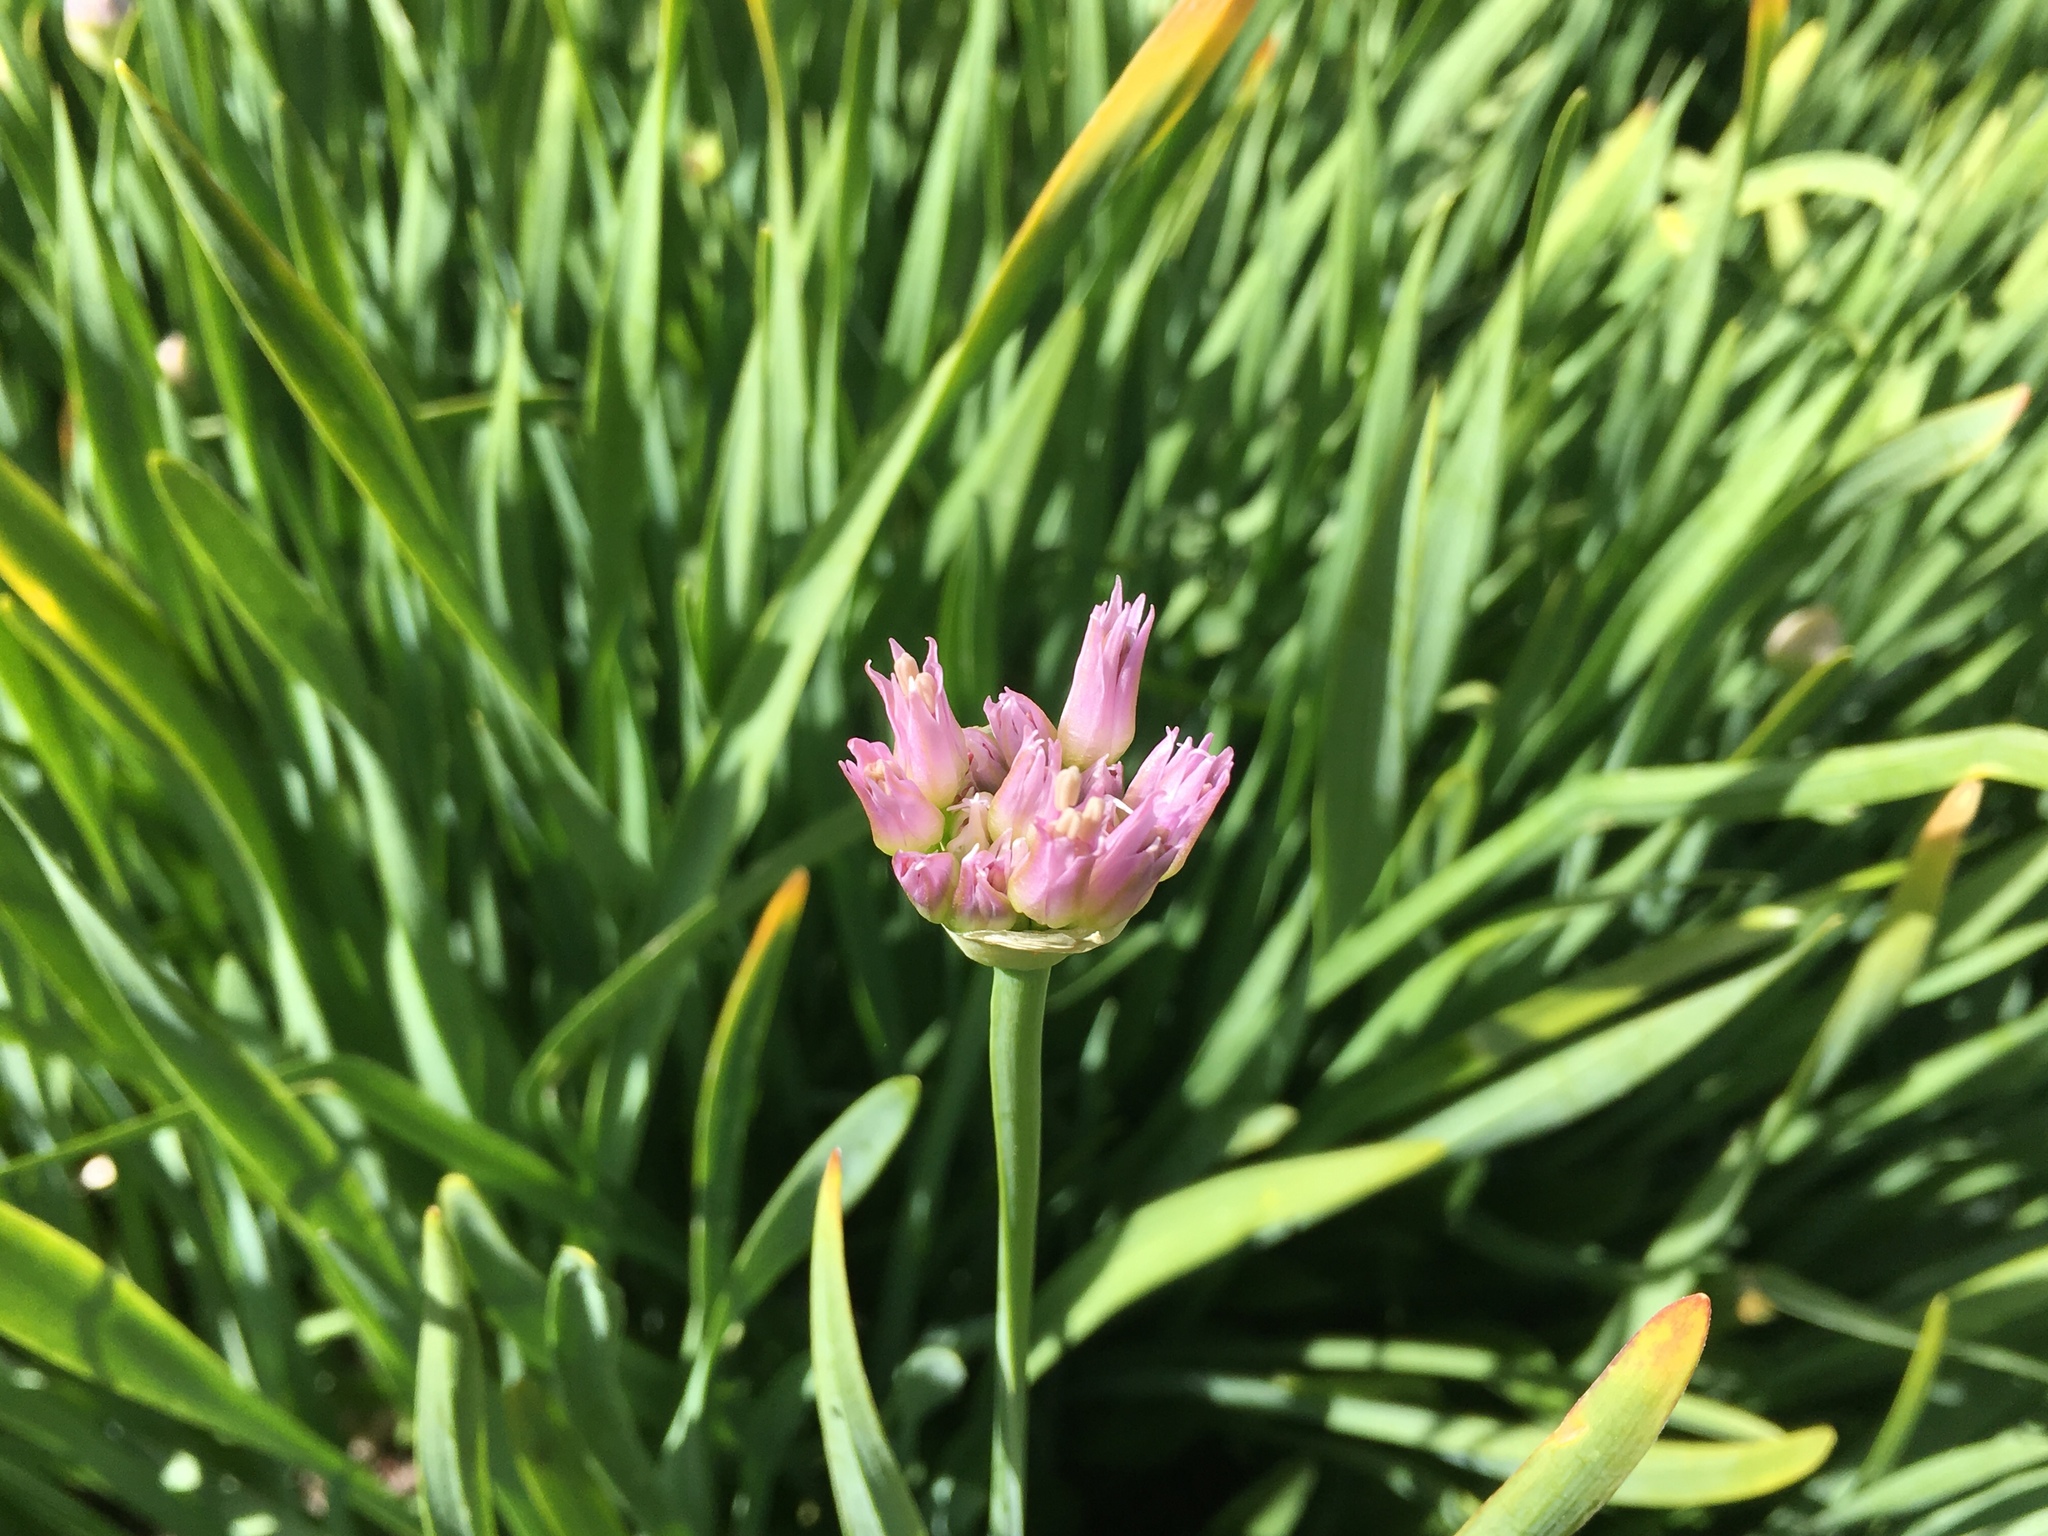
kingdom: Plantae
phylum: Tracheophyta
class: Liliopsida
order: Asparagales
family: Amaryllidaceae
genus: Allium
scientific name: Allium validum
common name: Pacific mountain onion
